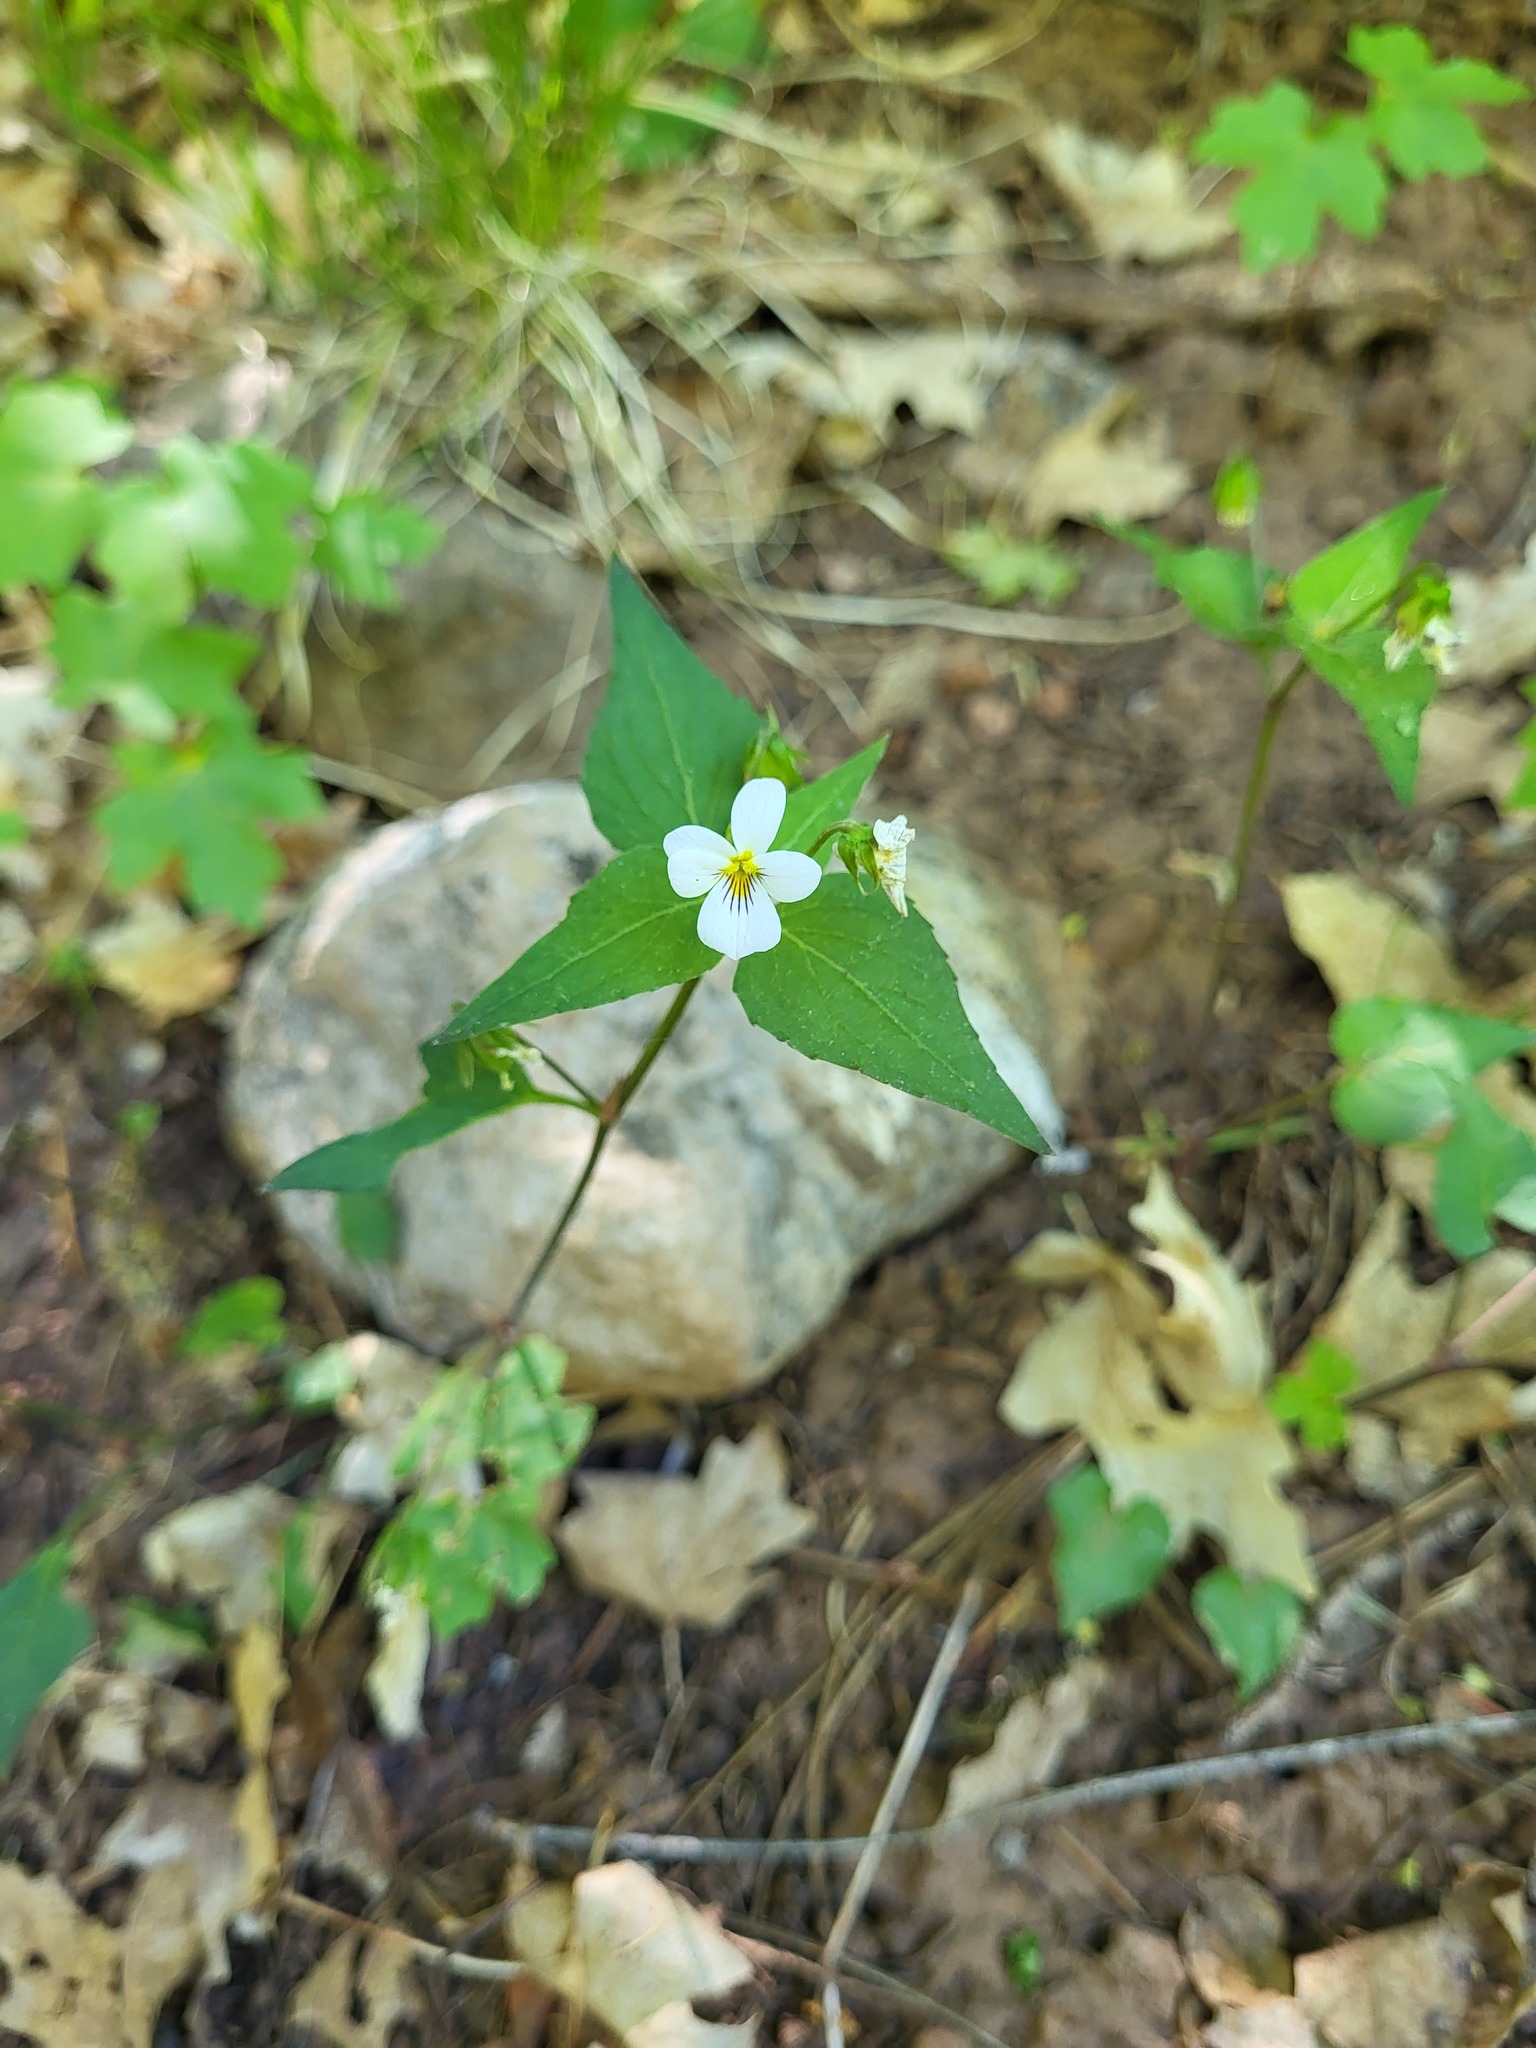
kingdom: Plantae
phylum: Tracheophyta
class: Magnoliopsida
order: Malpighiales
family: Violaceae
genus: Viola
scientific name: Viola canadensis
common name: Canada violet
